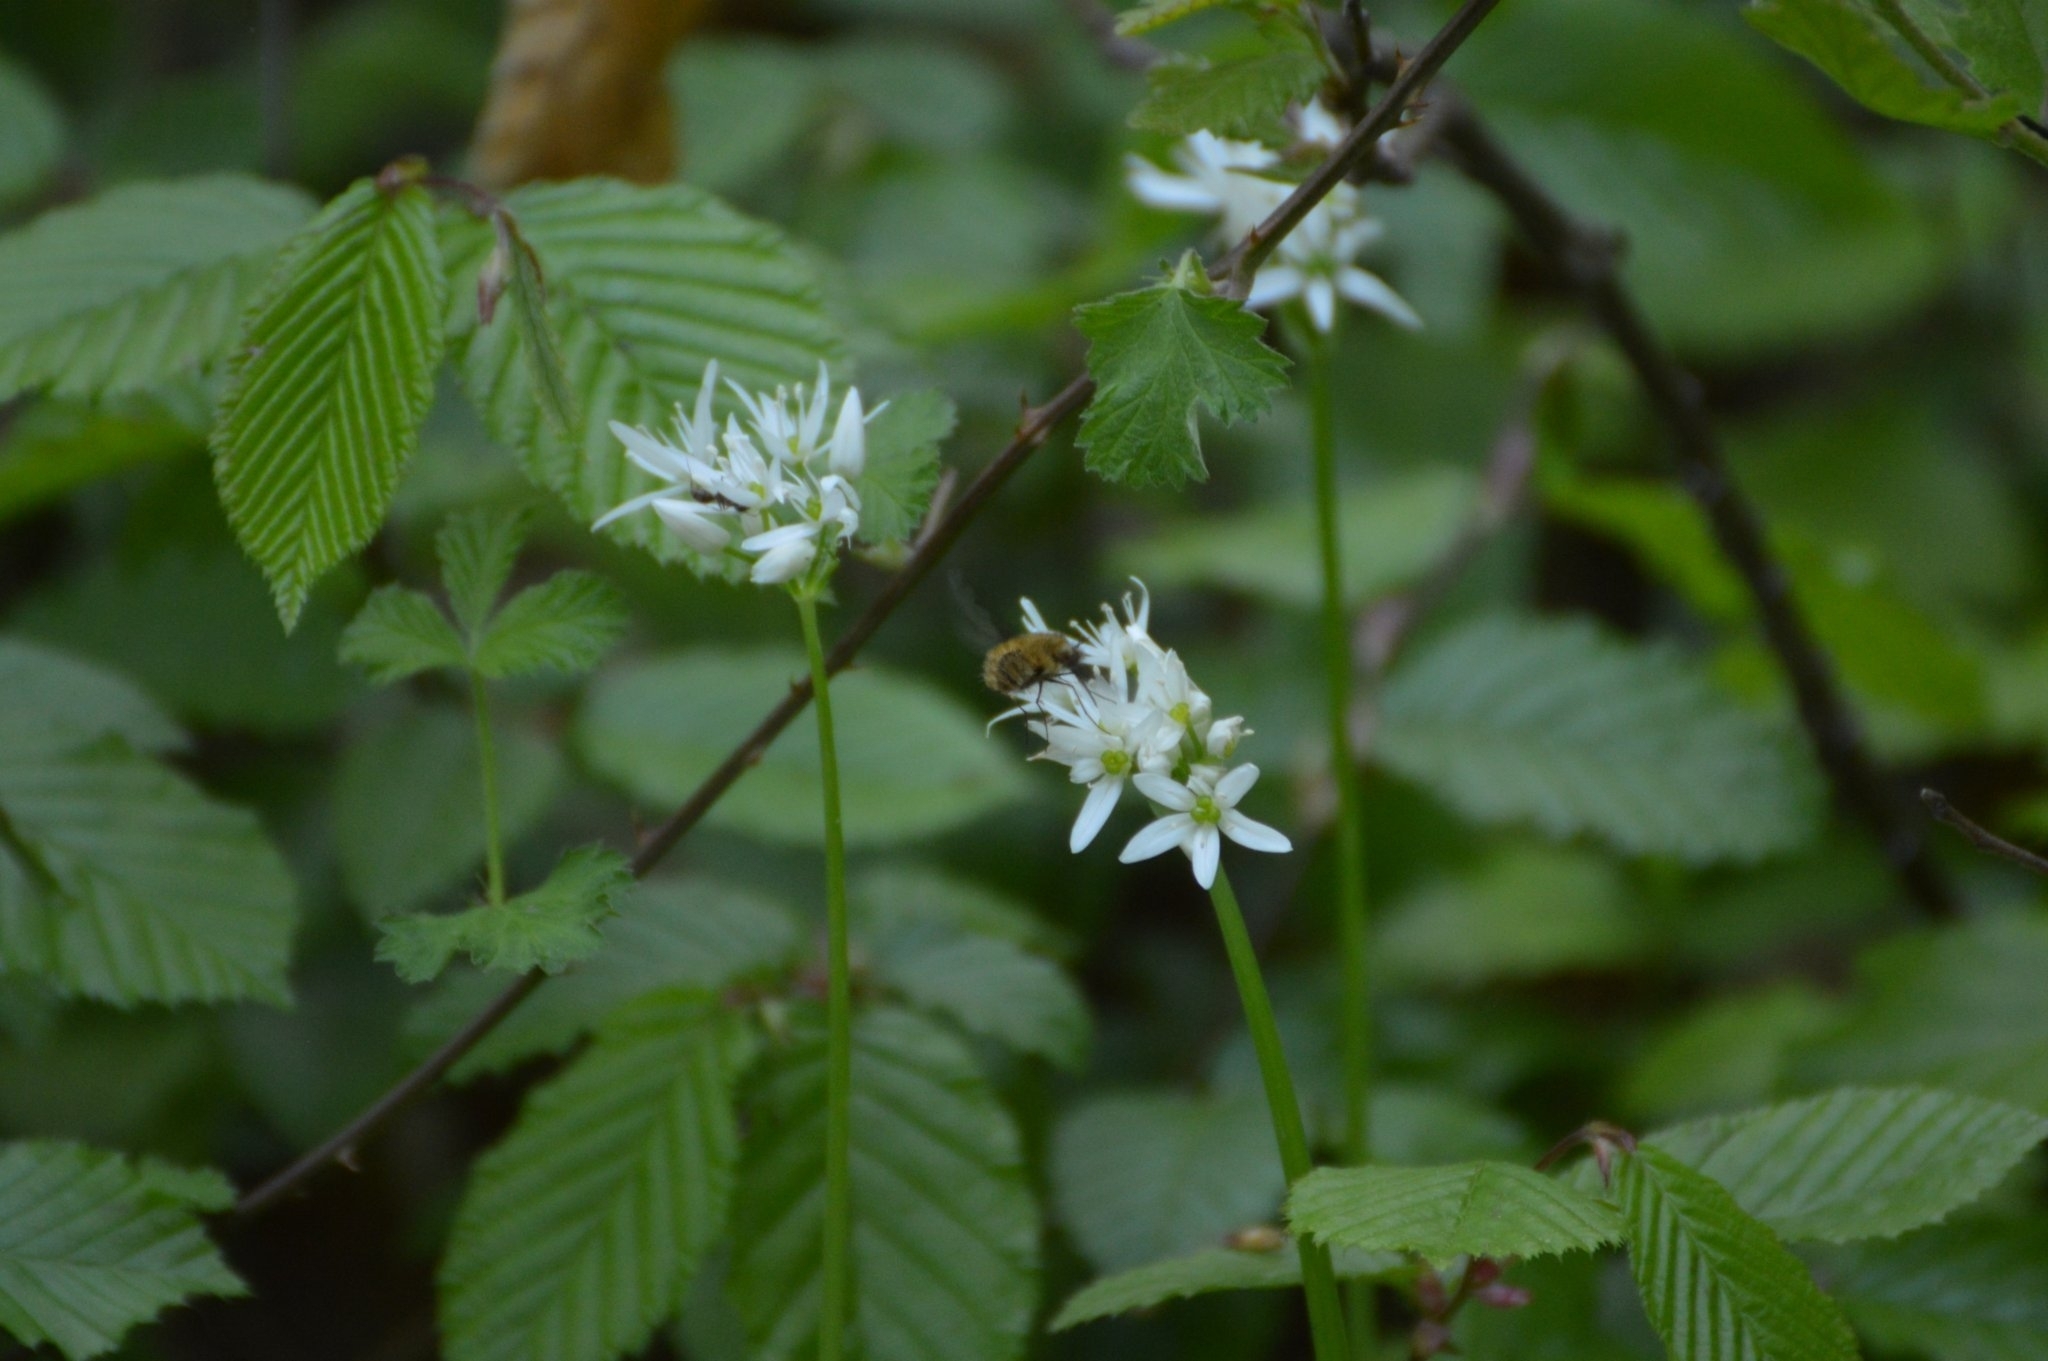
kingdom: Plantae
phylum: Tracheophyta
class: Liliopsida
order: Asparagales
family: Amaryllidaceae
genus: Allium
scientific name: Allium ursinum
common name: Ramsons
